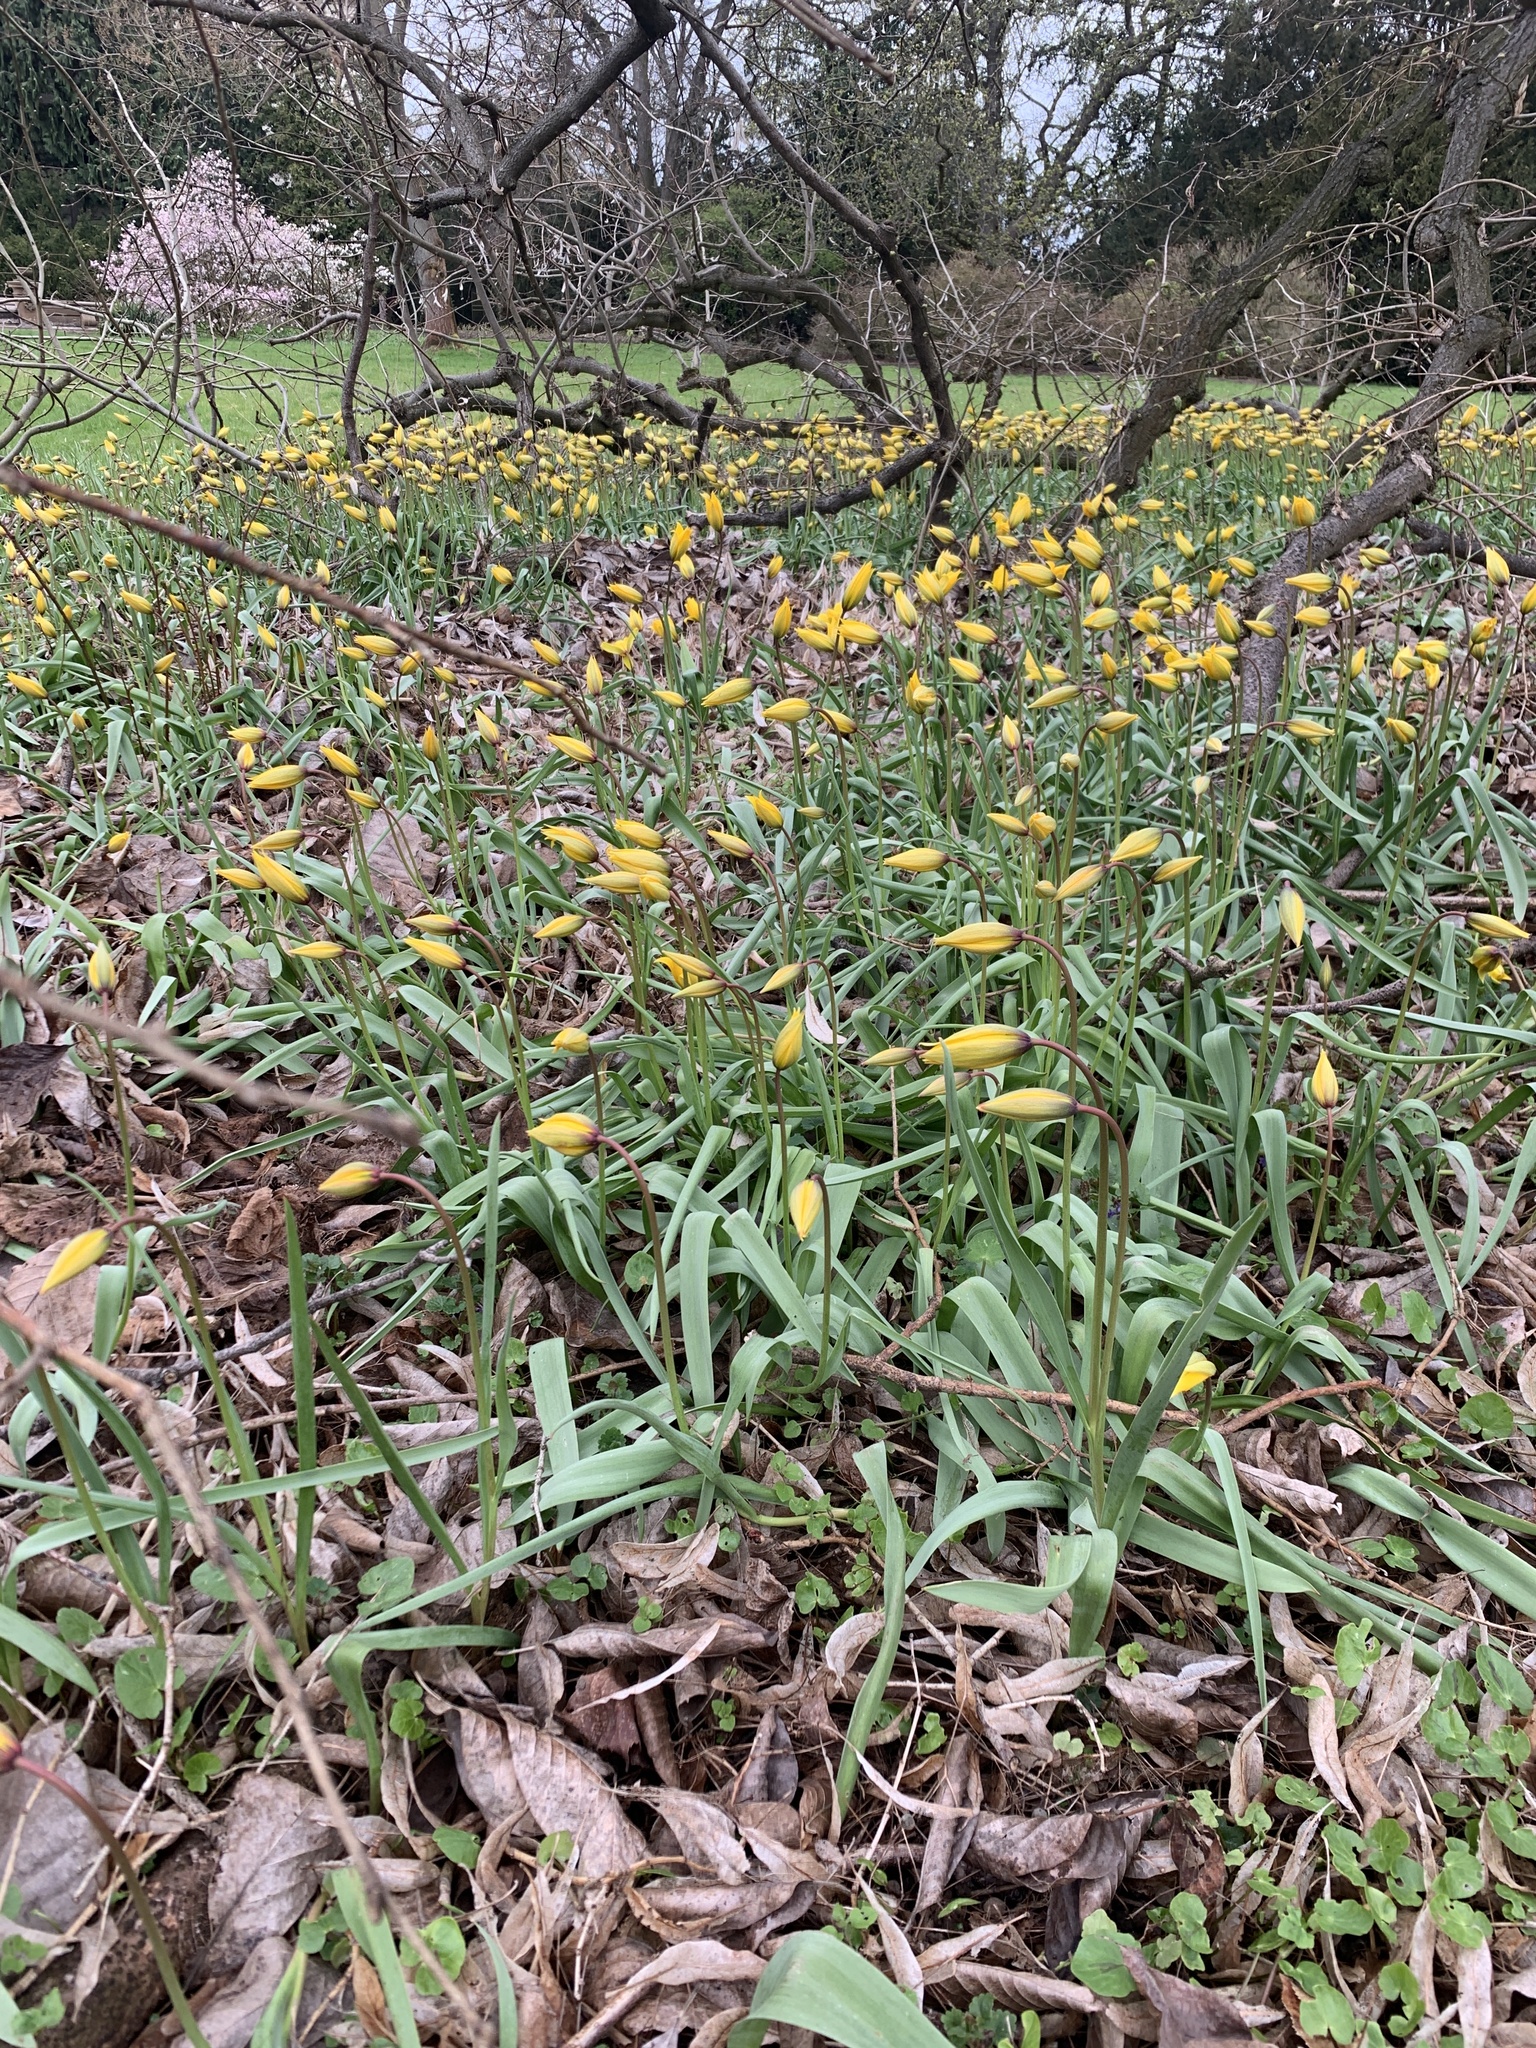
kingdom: Plantae
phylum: Tracheophyta
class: Liliopsida
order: Liliales
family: Liliaceae
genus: Tulipa
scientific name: Tulipa sylvestris
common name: Wild tulip
